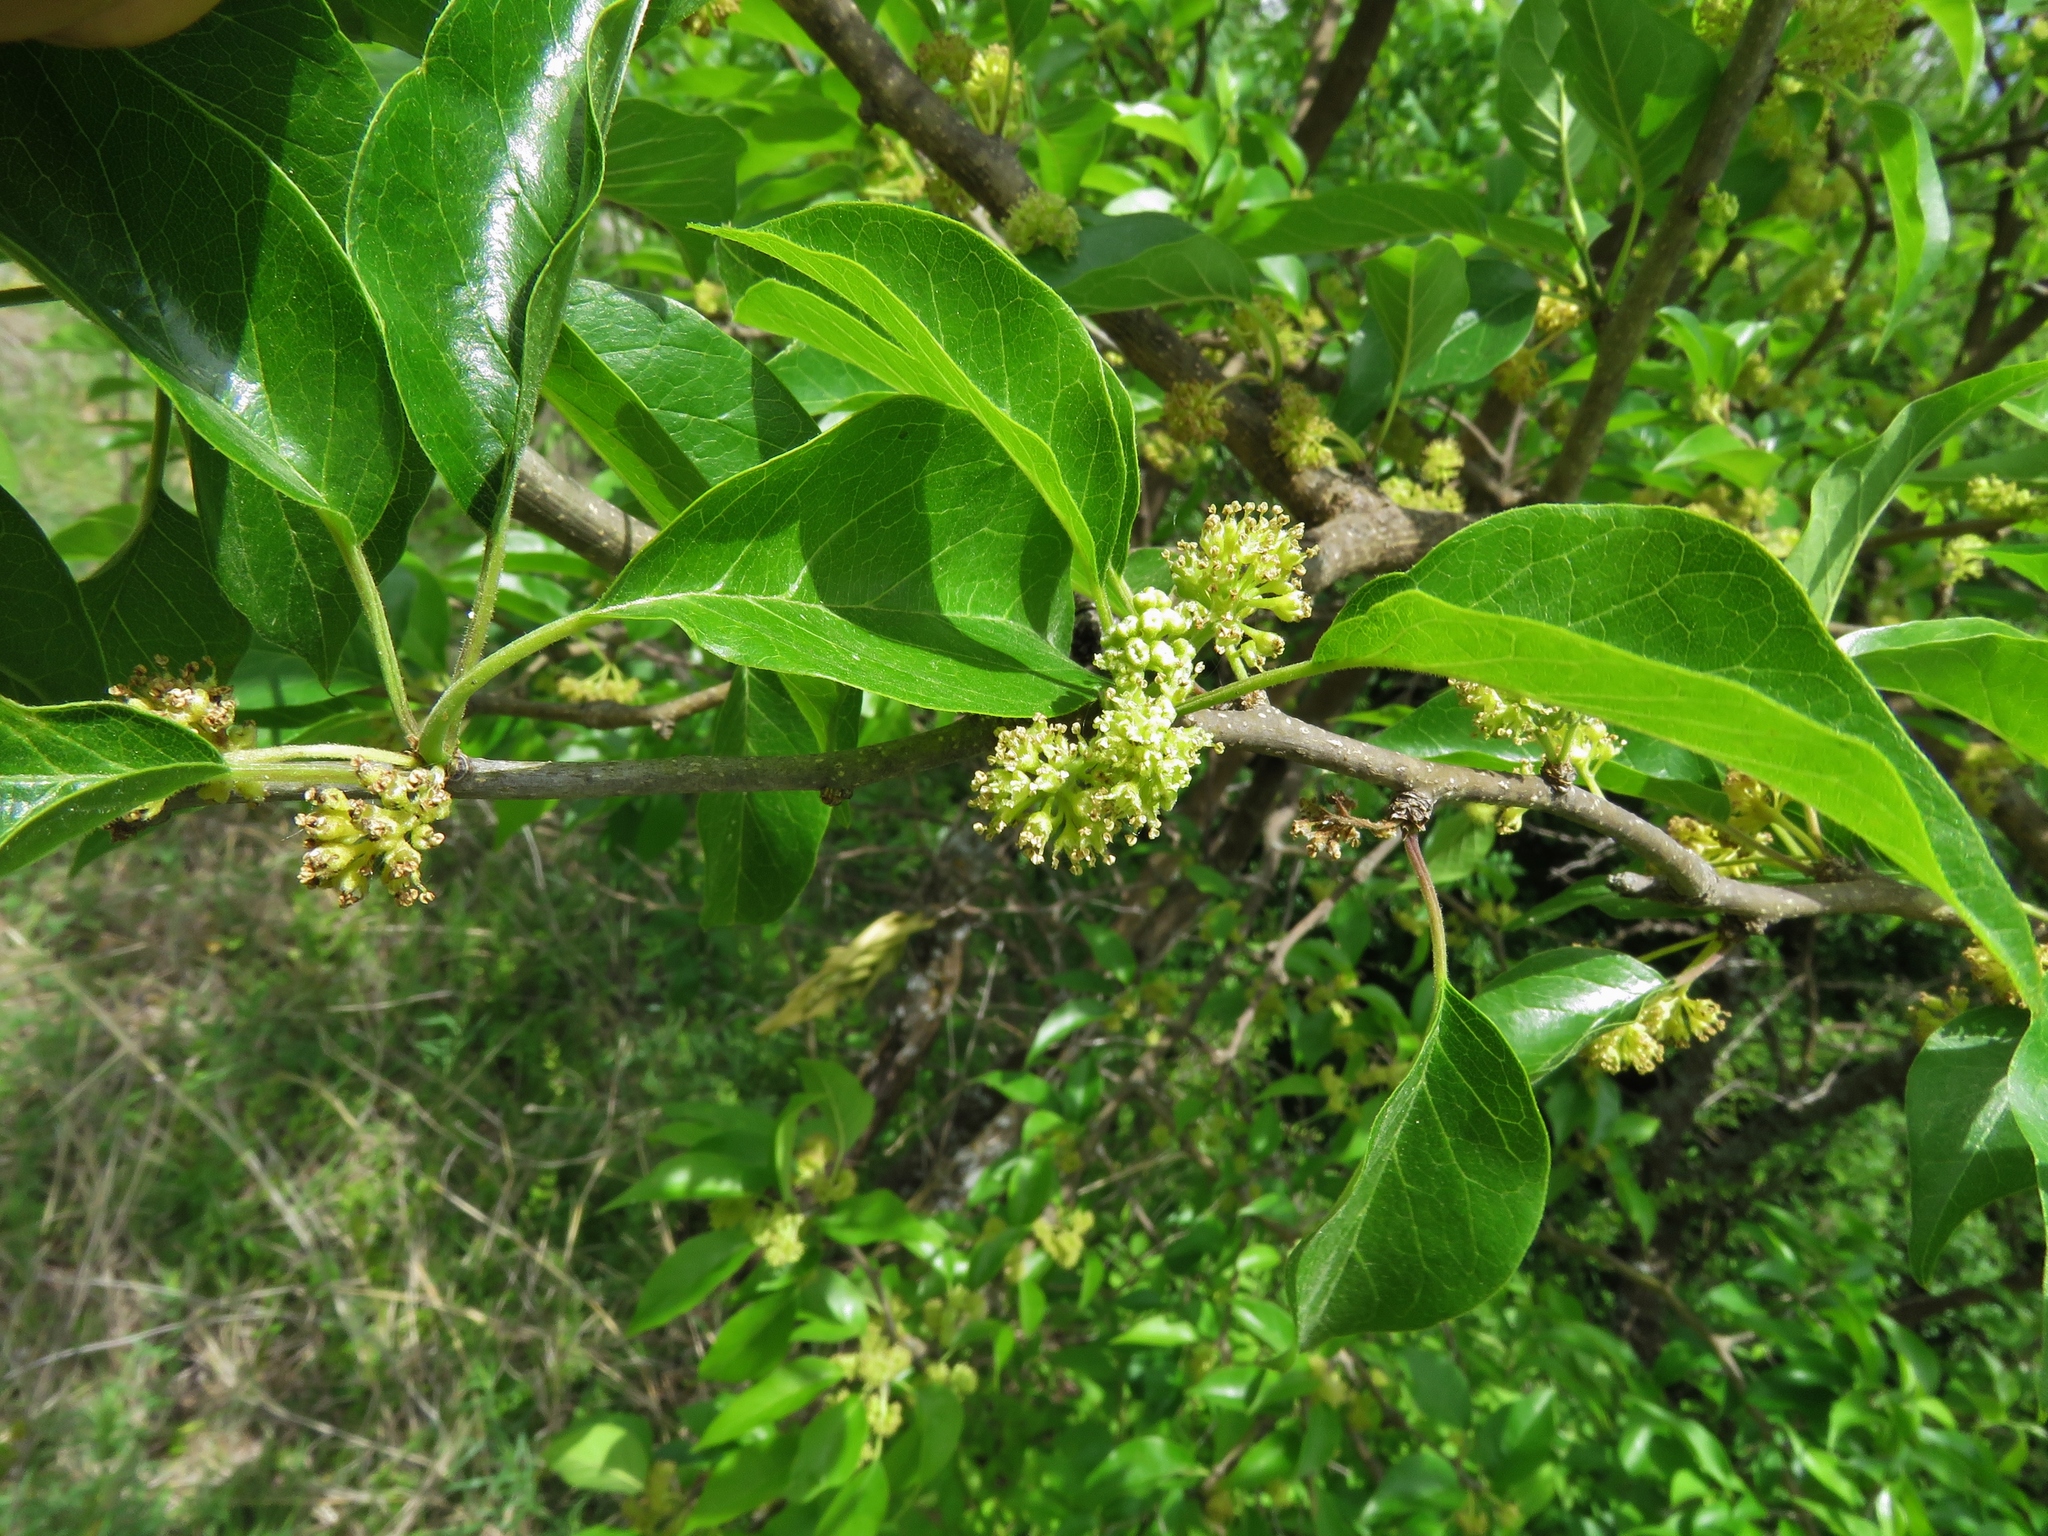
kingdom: Plantae
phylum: Tracheophyta
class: Magnoliopsida
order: Rosales
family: Moraceae
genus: Maclura
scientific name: Maclura pomifera
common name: Osage-orange
